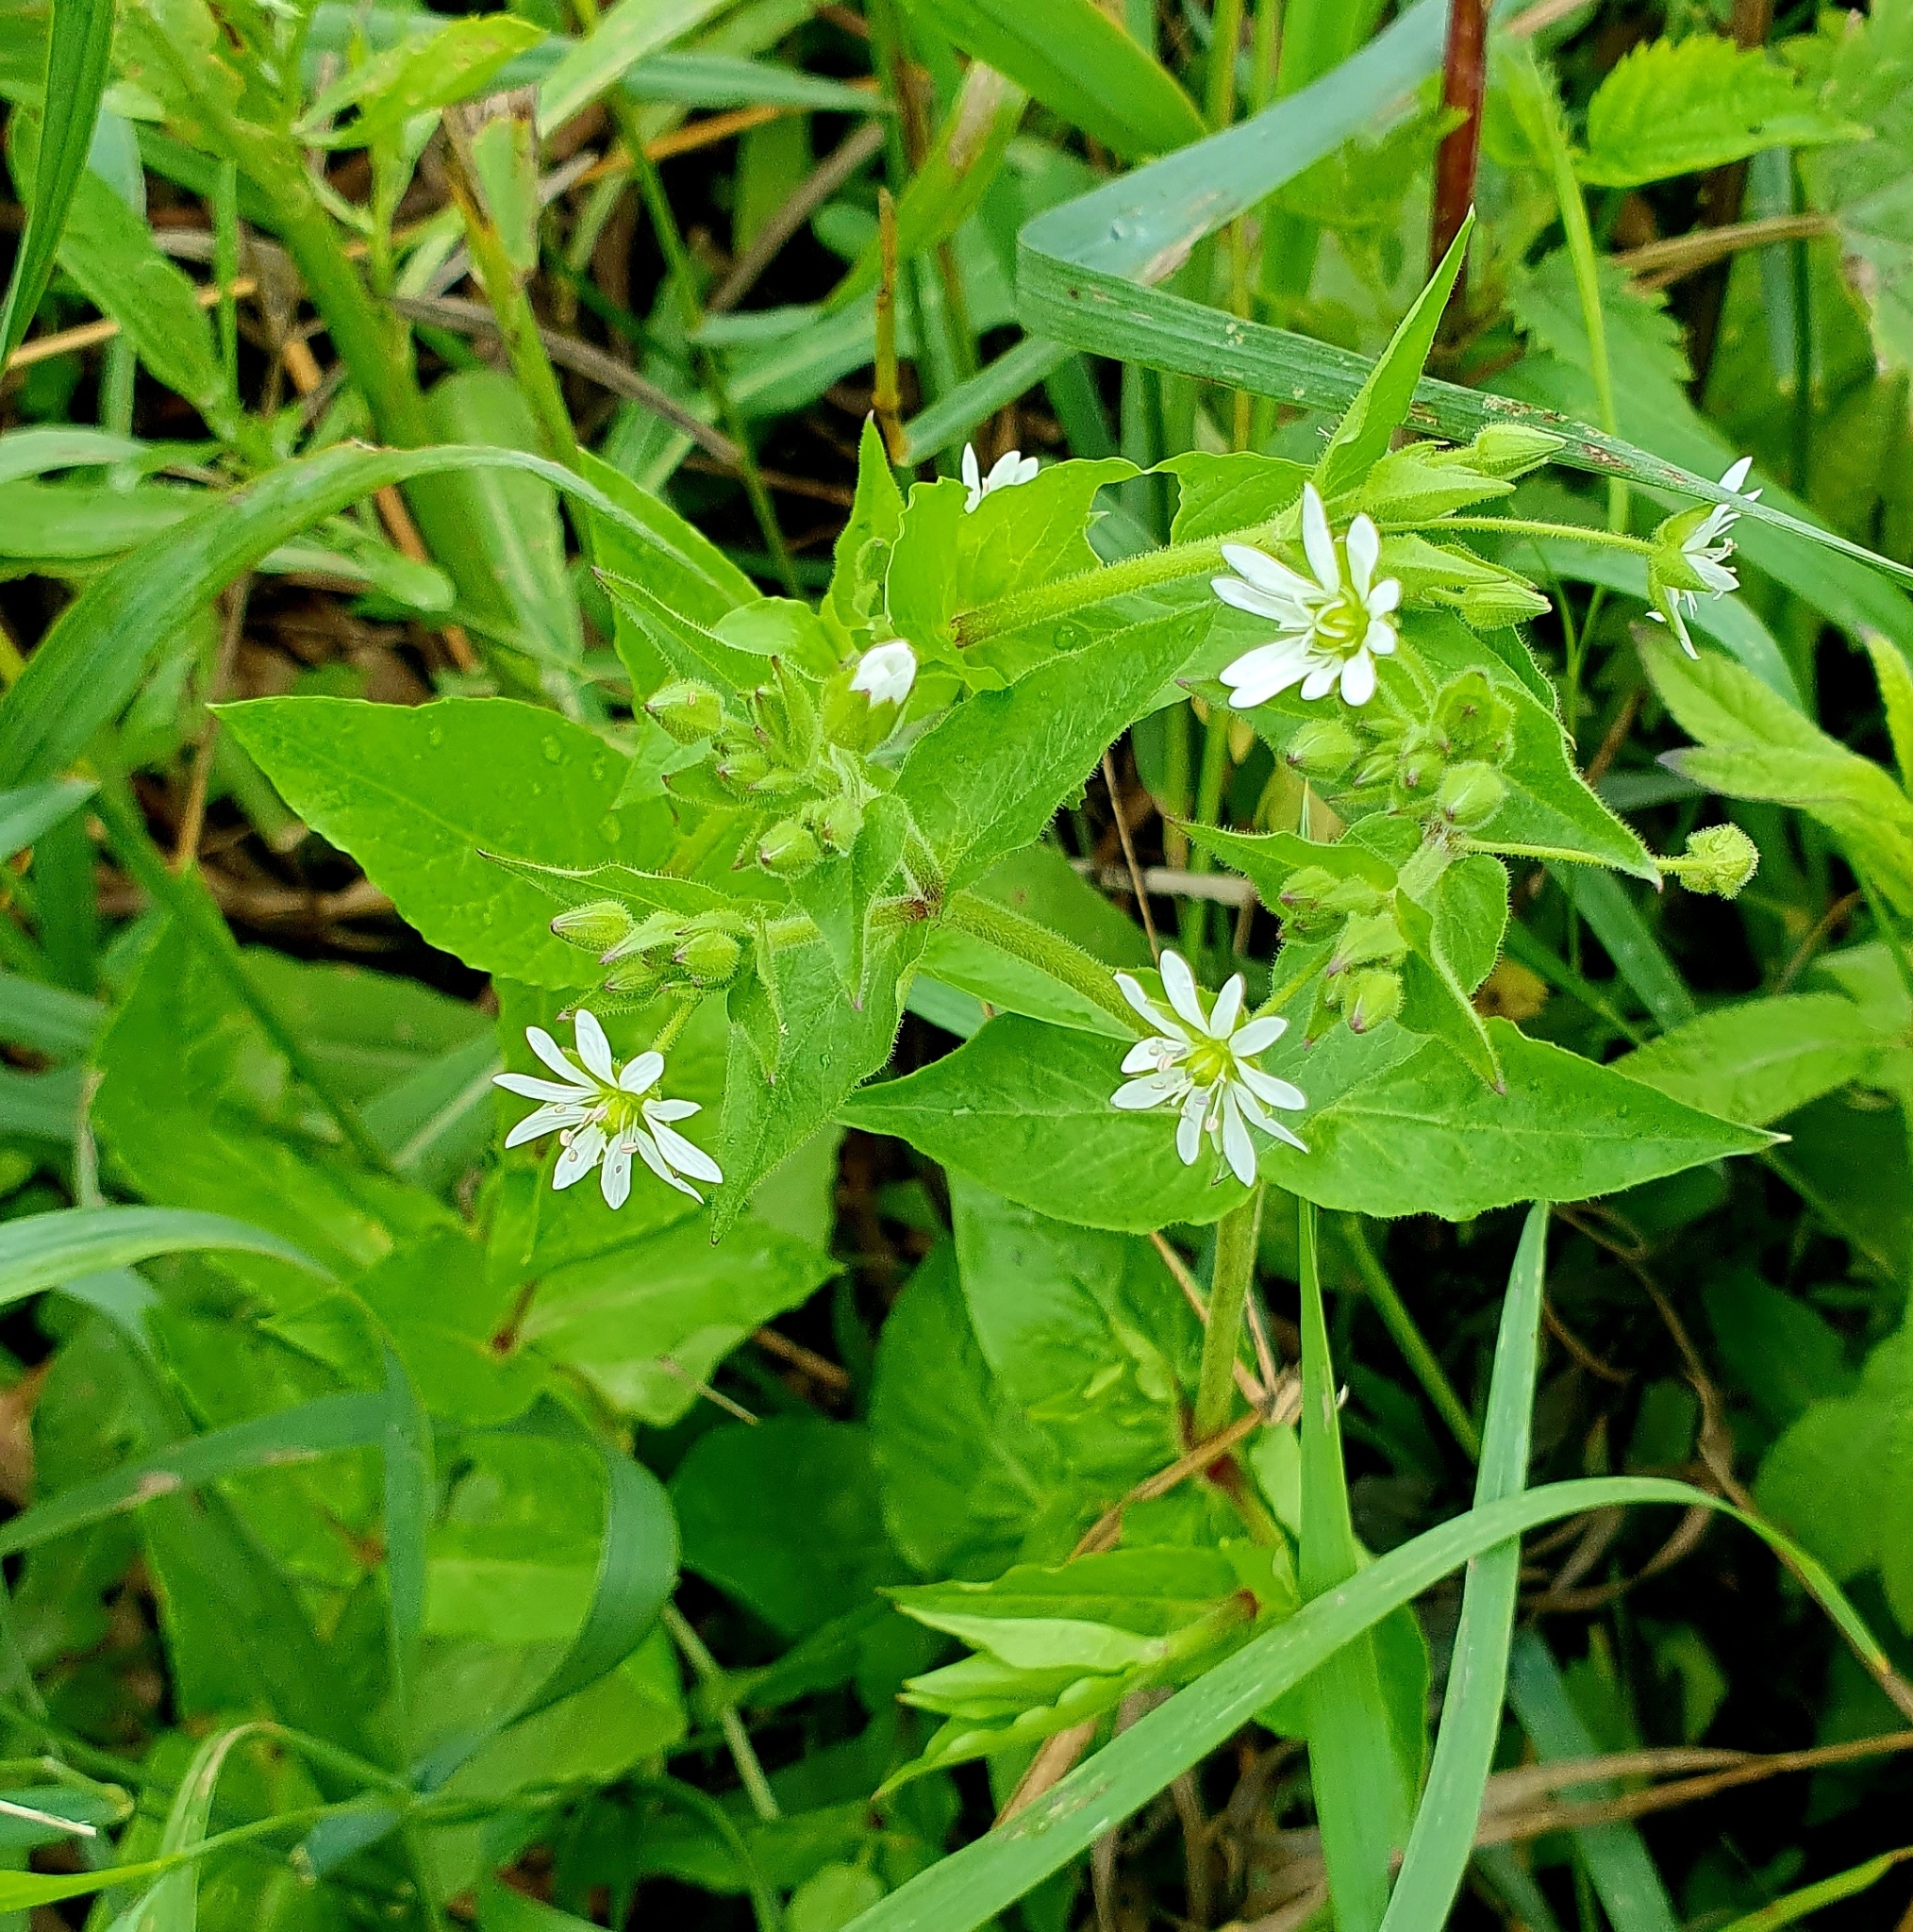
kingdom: Plantae
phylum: Tracheophyta
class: Magnoliopsida
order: Caryophyllales
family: Caryophyllaceae
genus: Stellaria
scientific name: Stellaria aquatica
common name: Water chickweed
